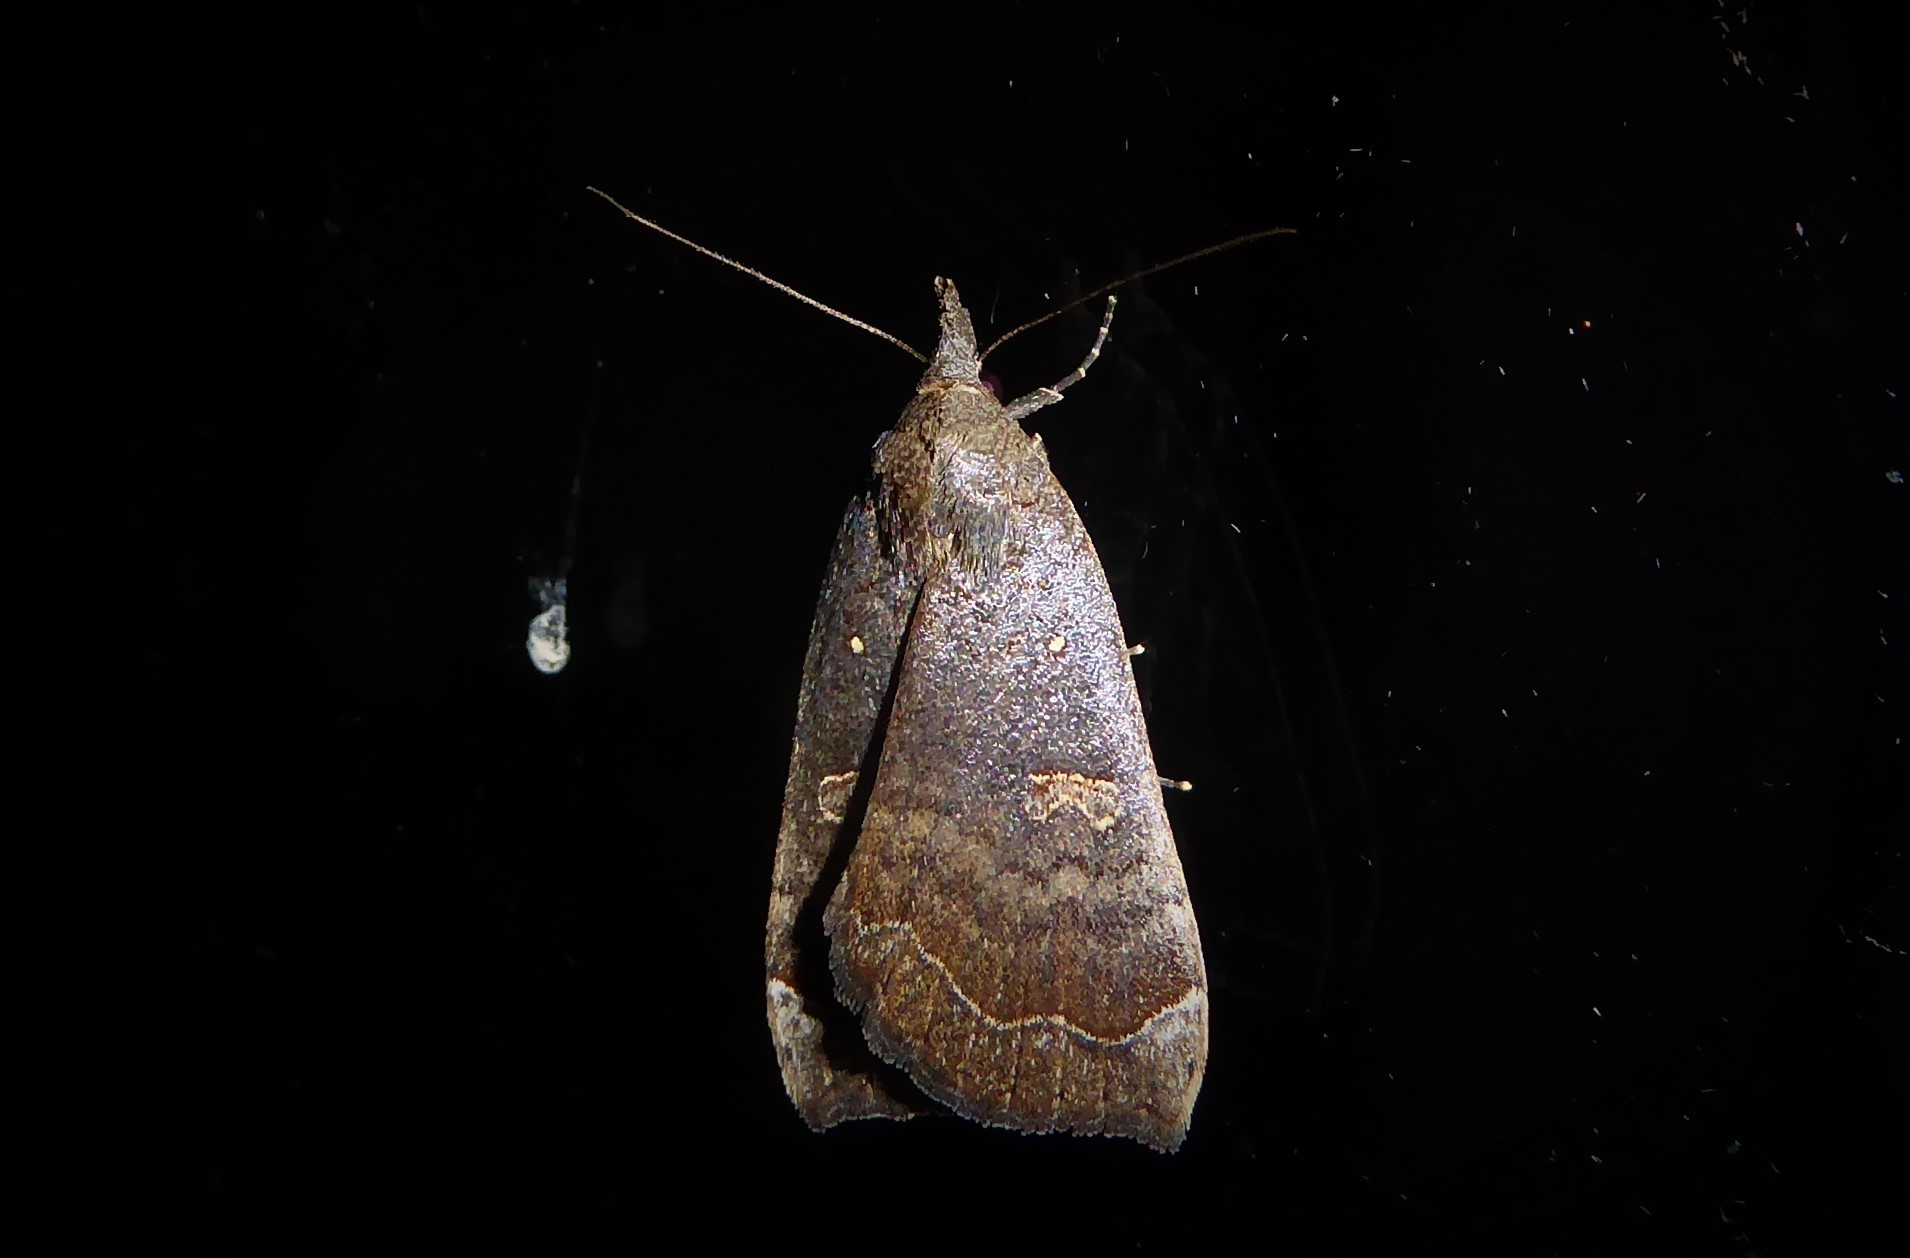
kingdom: Animalia
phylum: Arthropoda
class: Insecta
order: Lepidoptera
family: Erebidae
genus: Rhapsa
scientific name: Rhapsa scotosialis
